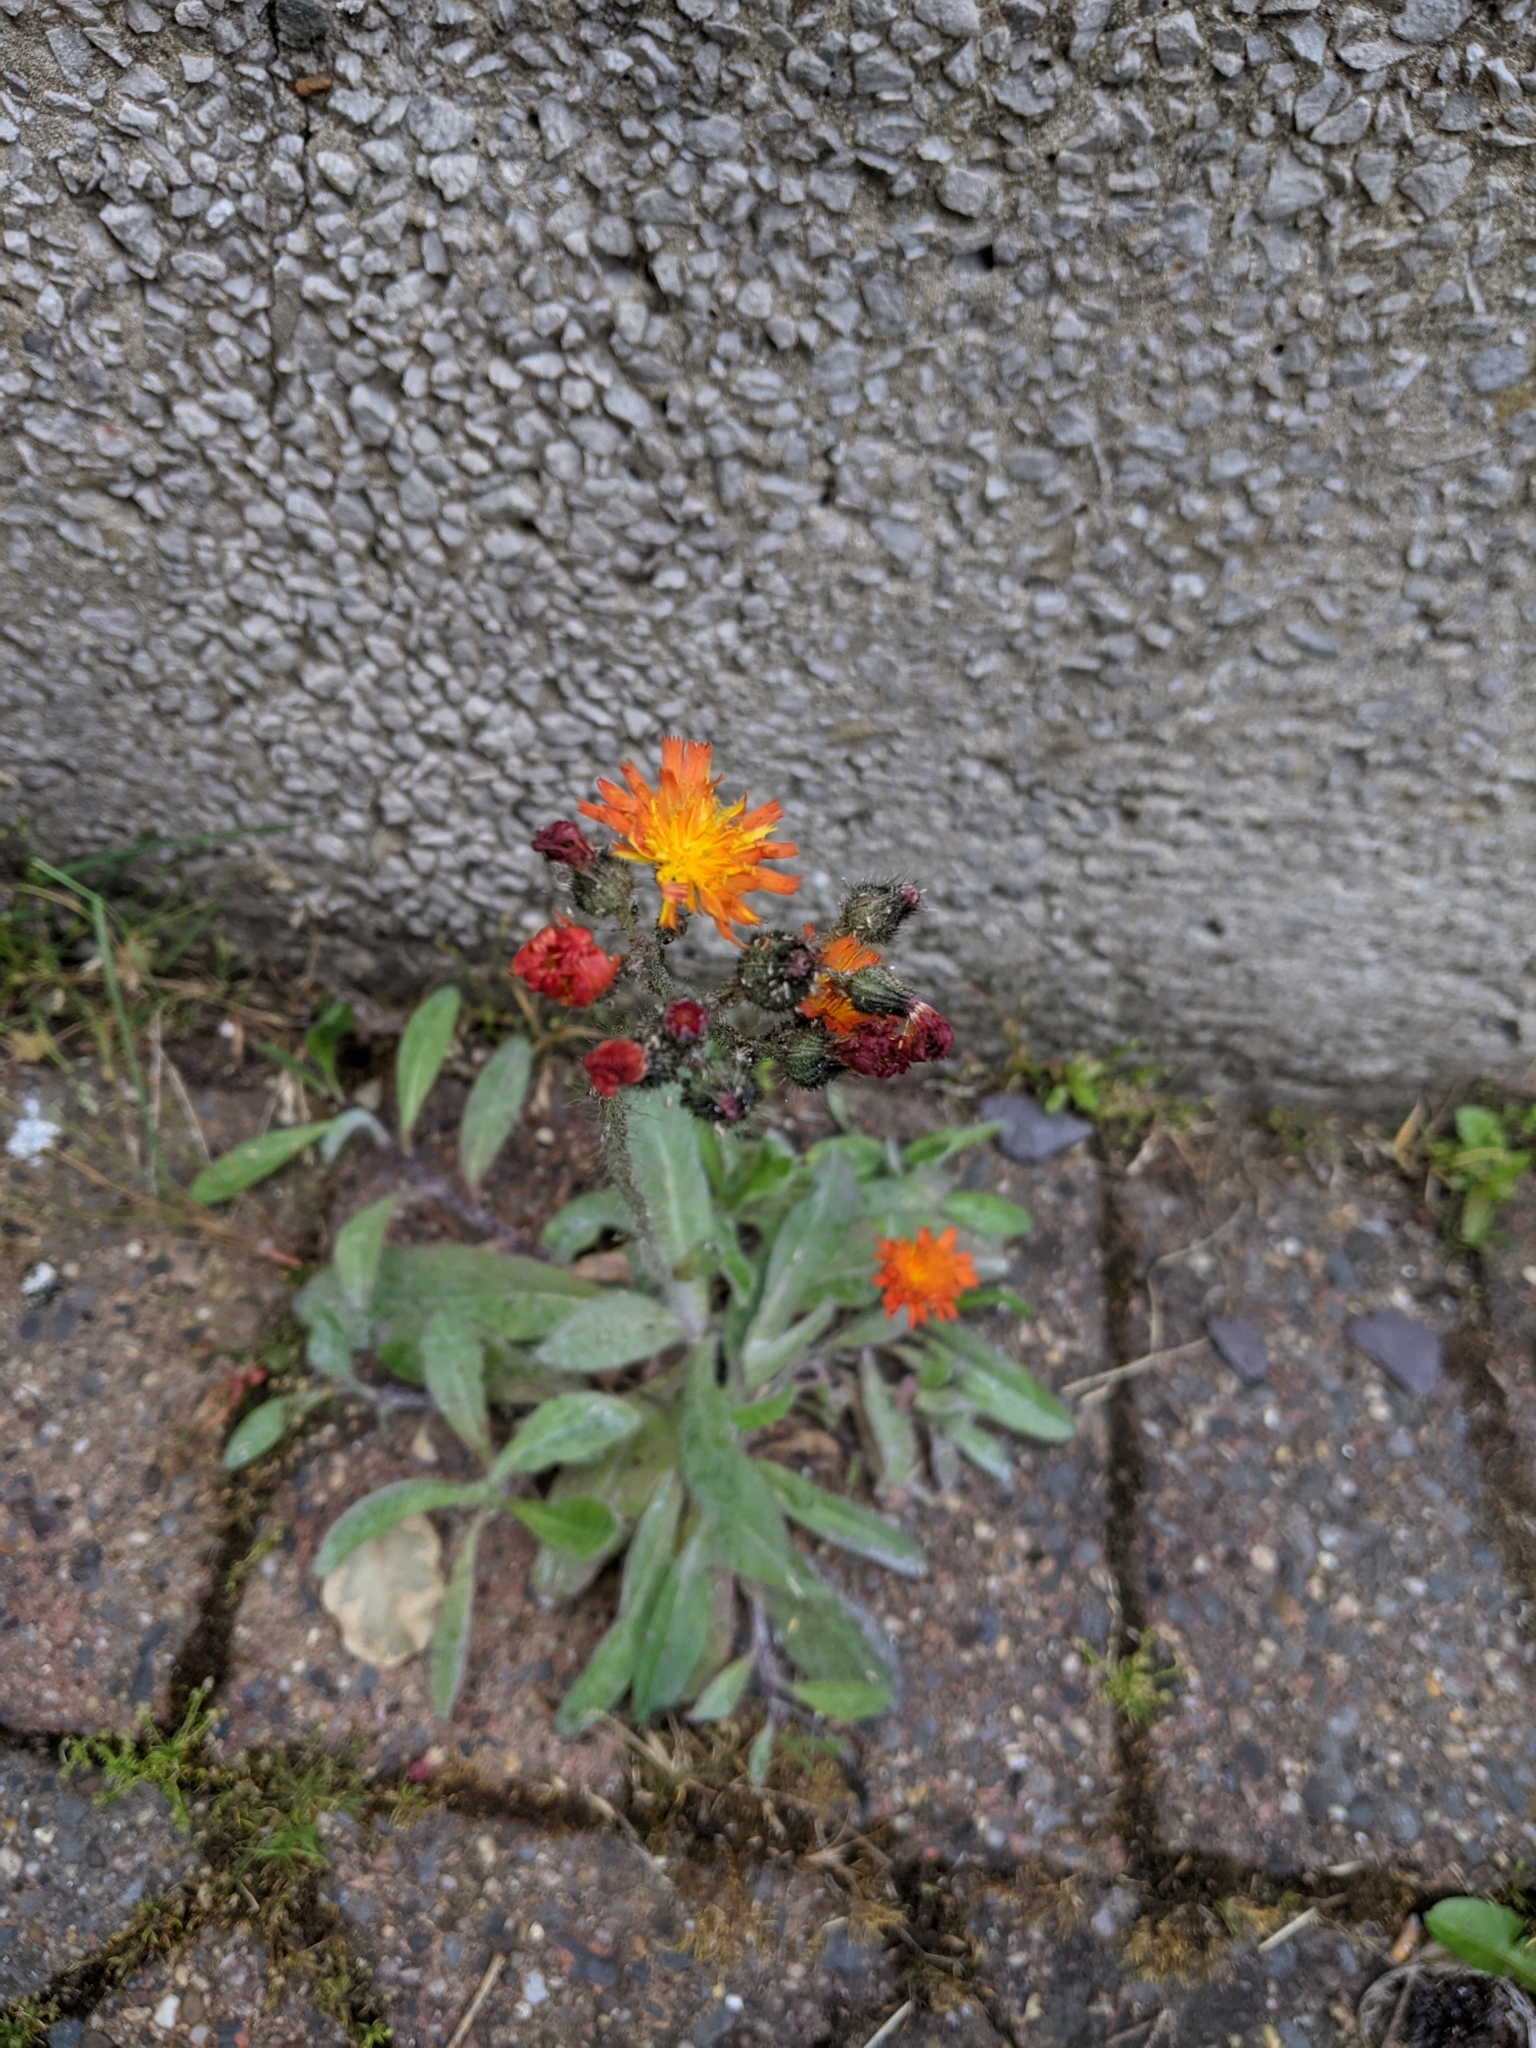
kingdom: Plantae
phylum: Tracheophyta
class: Magnoliopsida
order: Asterales
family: Asteraceae
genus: Pilosella
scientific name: Pilosella aurantiaca
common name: Fox-and-cubs
